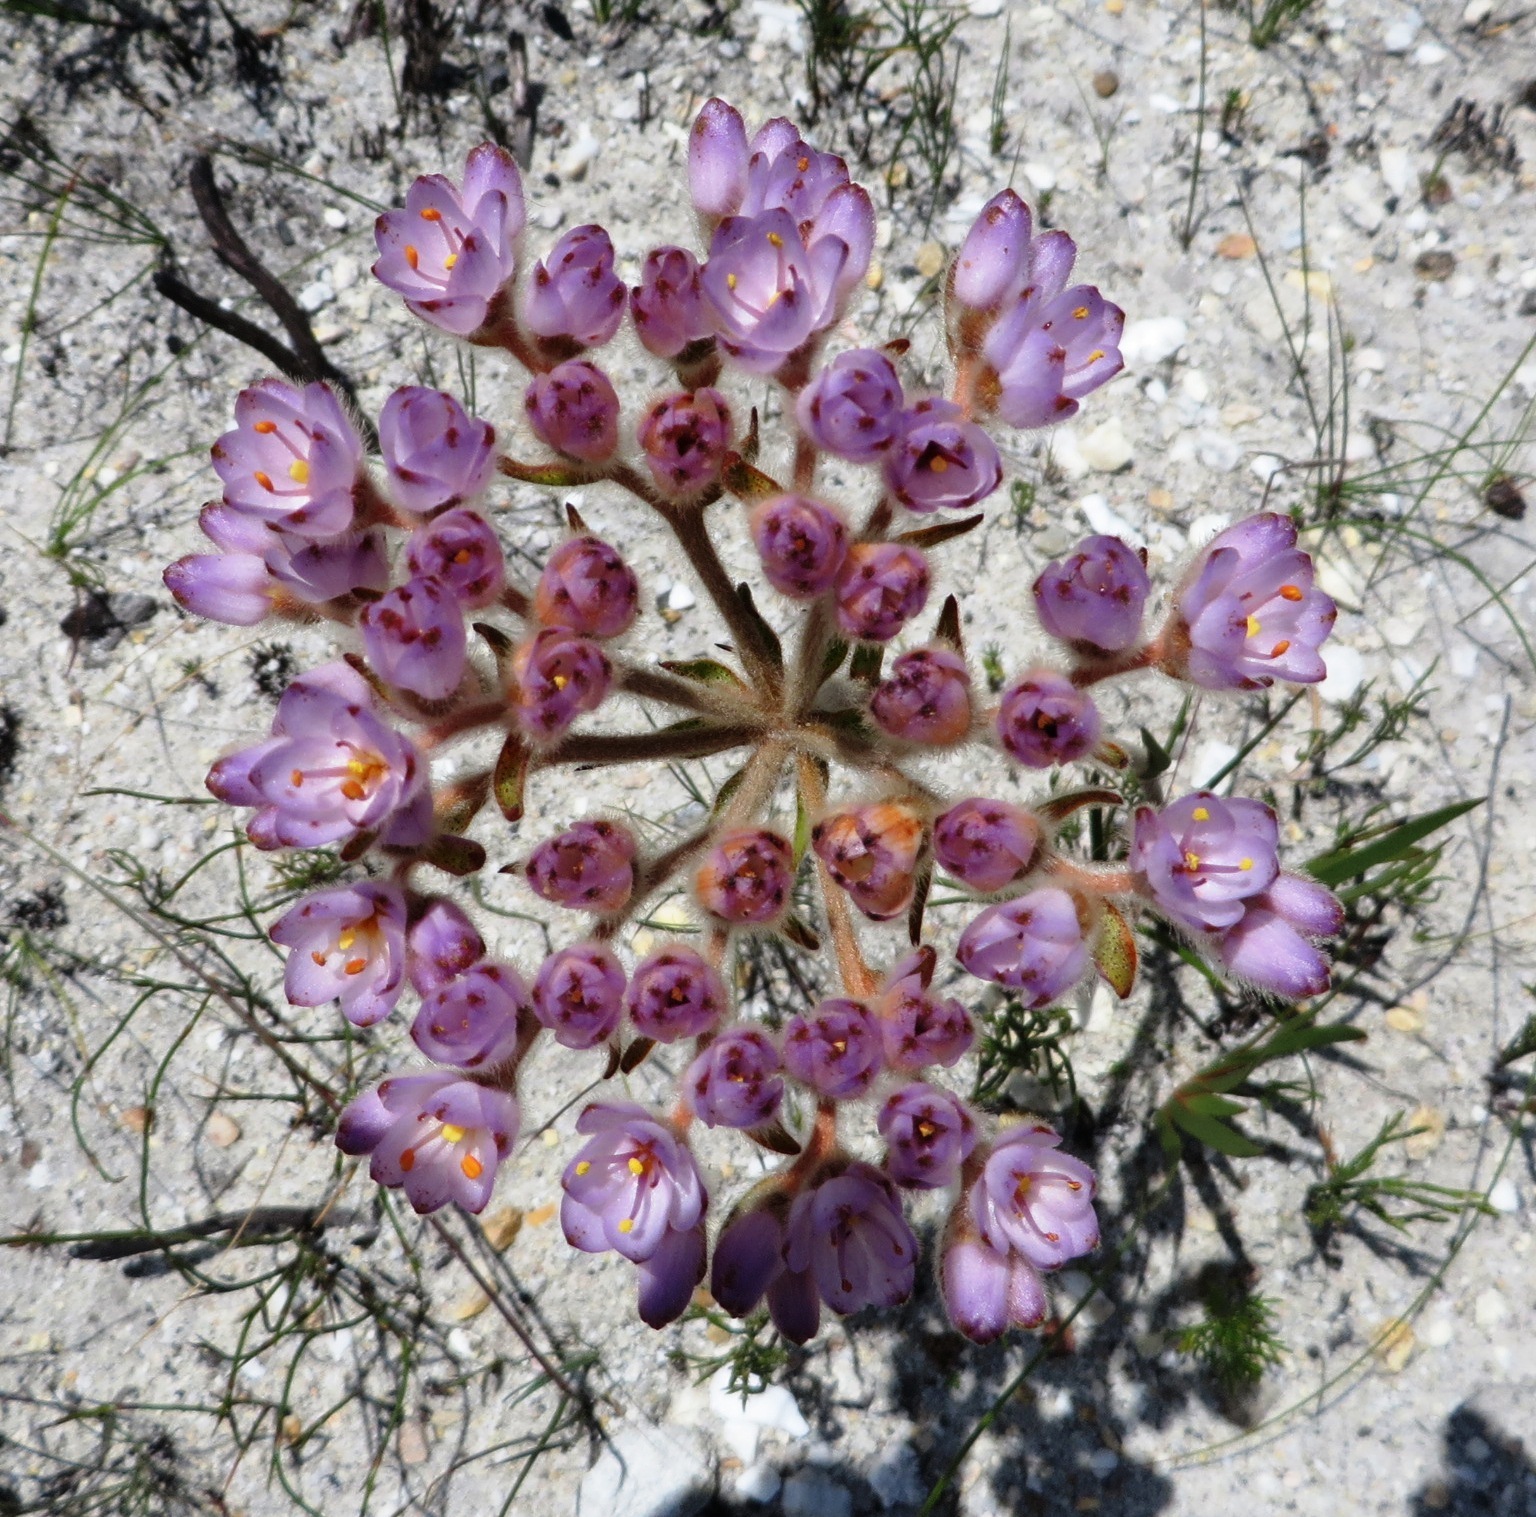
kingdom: Plantae
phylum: Tracheophyta
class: Liliopsida
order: Commelinales
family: Haemodoraceae
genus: Dilatris
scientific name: Dilatris pillansii
